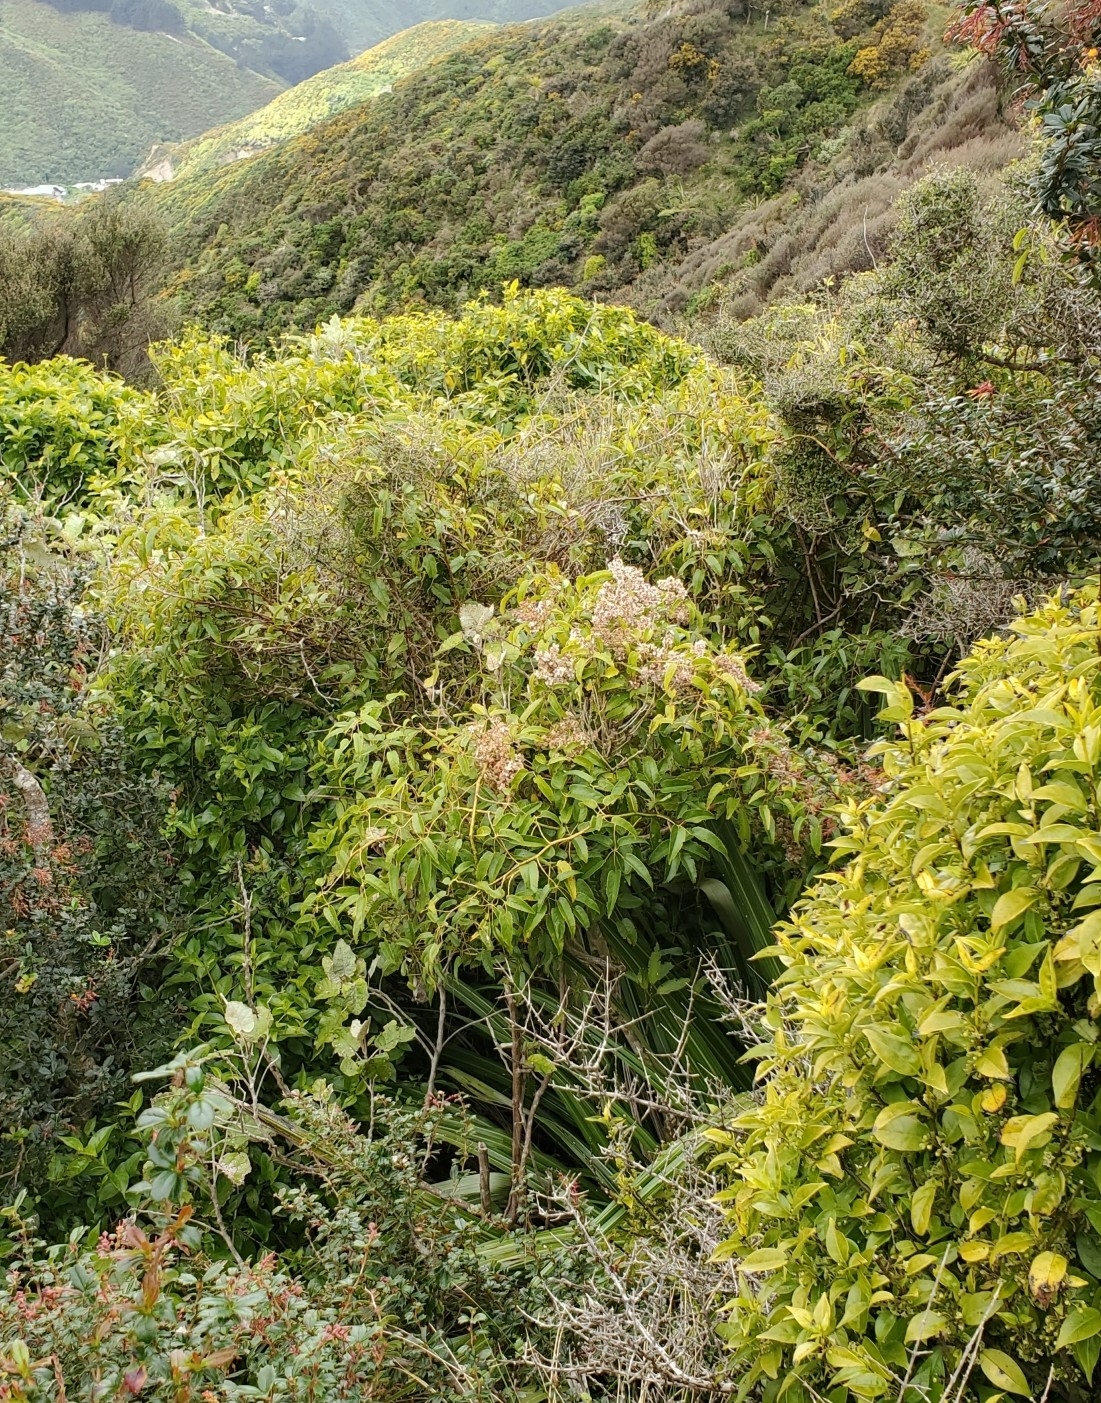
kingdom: Plantae
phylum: Tracheophyta
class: Magnoliopsida
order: Rosales
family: Rosaceae
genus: Rubus
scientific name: Rubus cissoides
